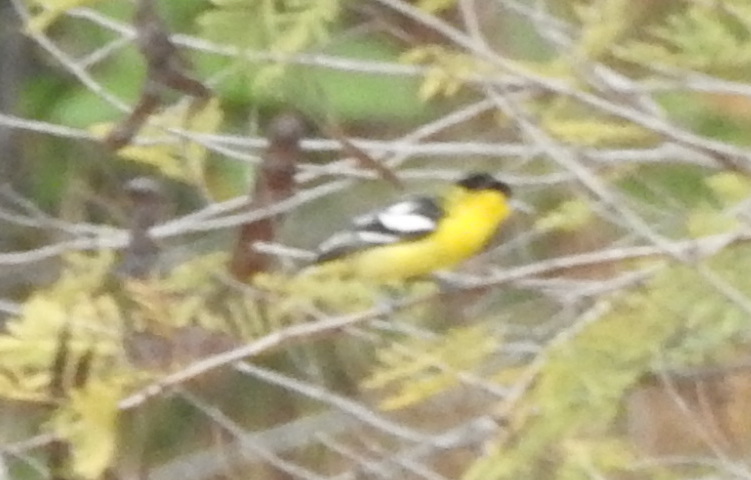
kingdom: Animalia
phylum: Chordata
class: Aves
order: Passeriformes
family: Aegithinidae
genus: Aegithina
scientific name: Aegithina nigrolutea
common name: Marshall's iora
